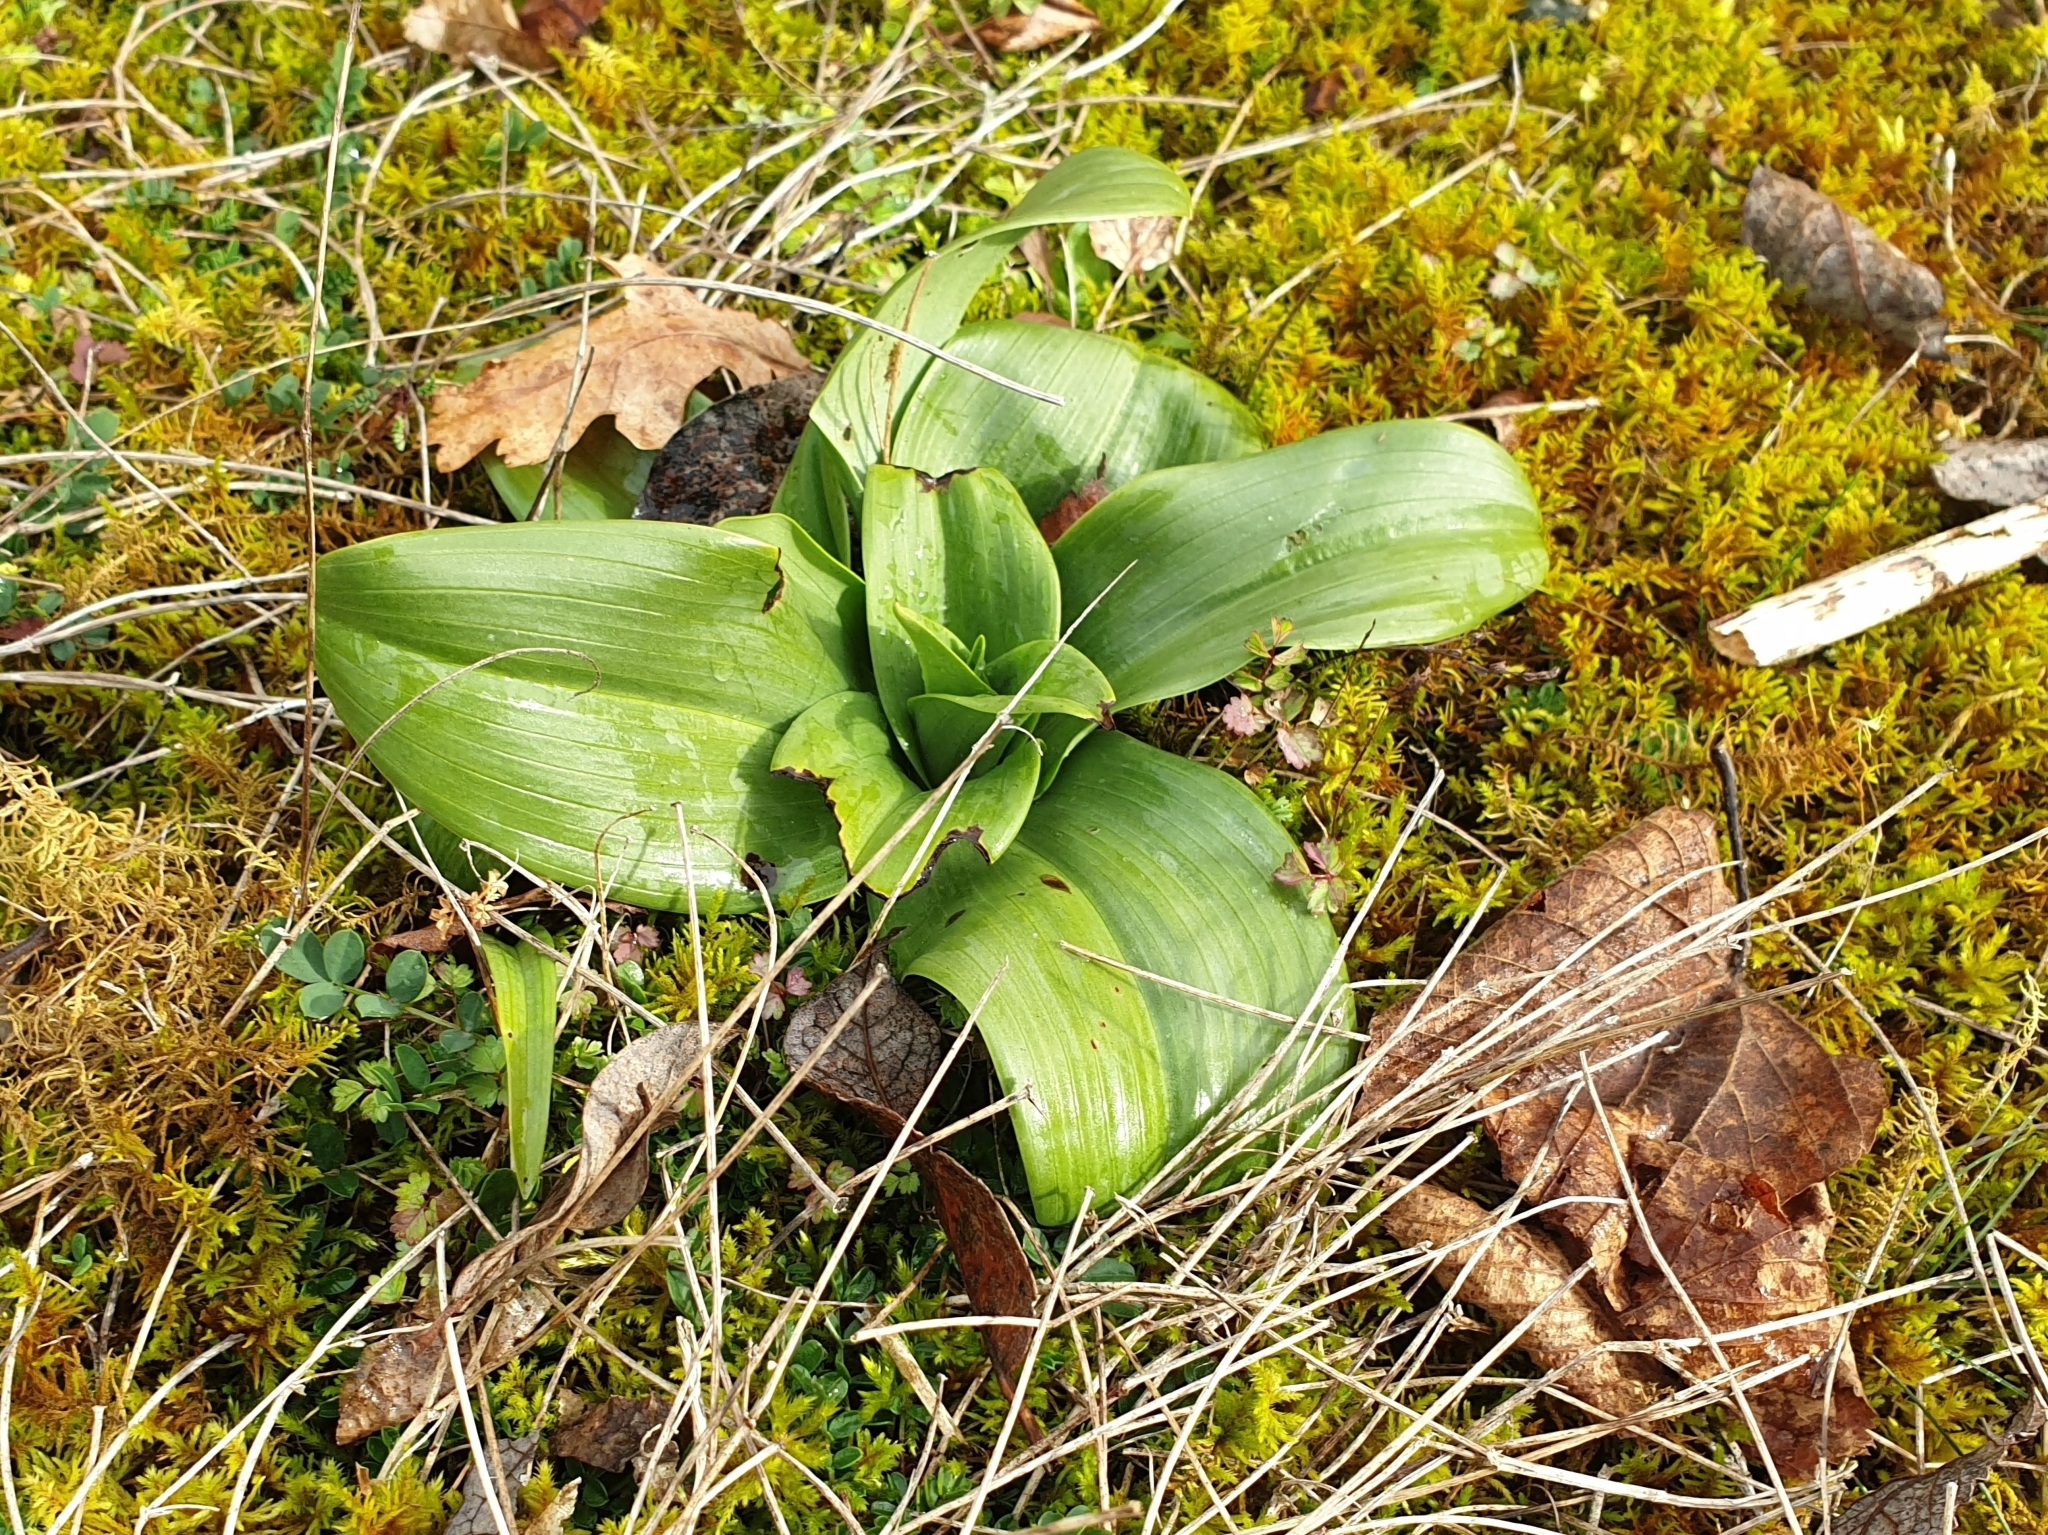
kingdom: Plantae
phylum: Tracheophyta
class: Liliopsida
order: Asparagales
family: Orchidaceae
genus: Himantoglossum
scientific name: Himantoglossum hircinum
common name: Lizard orchid
